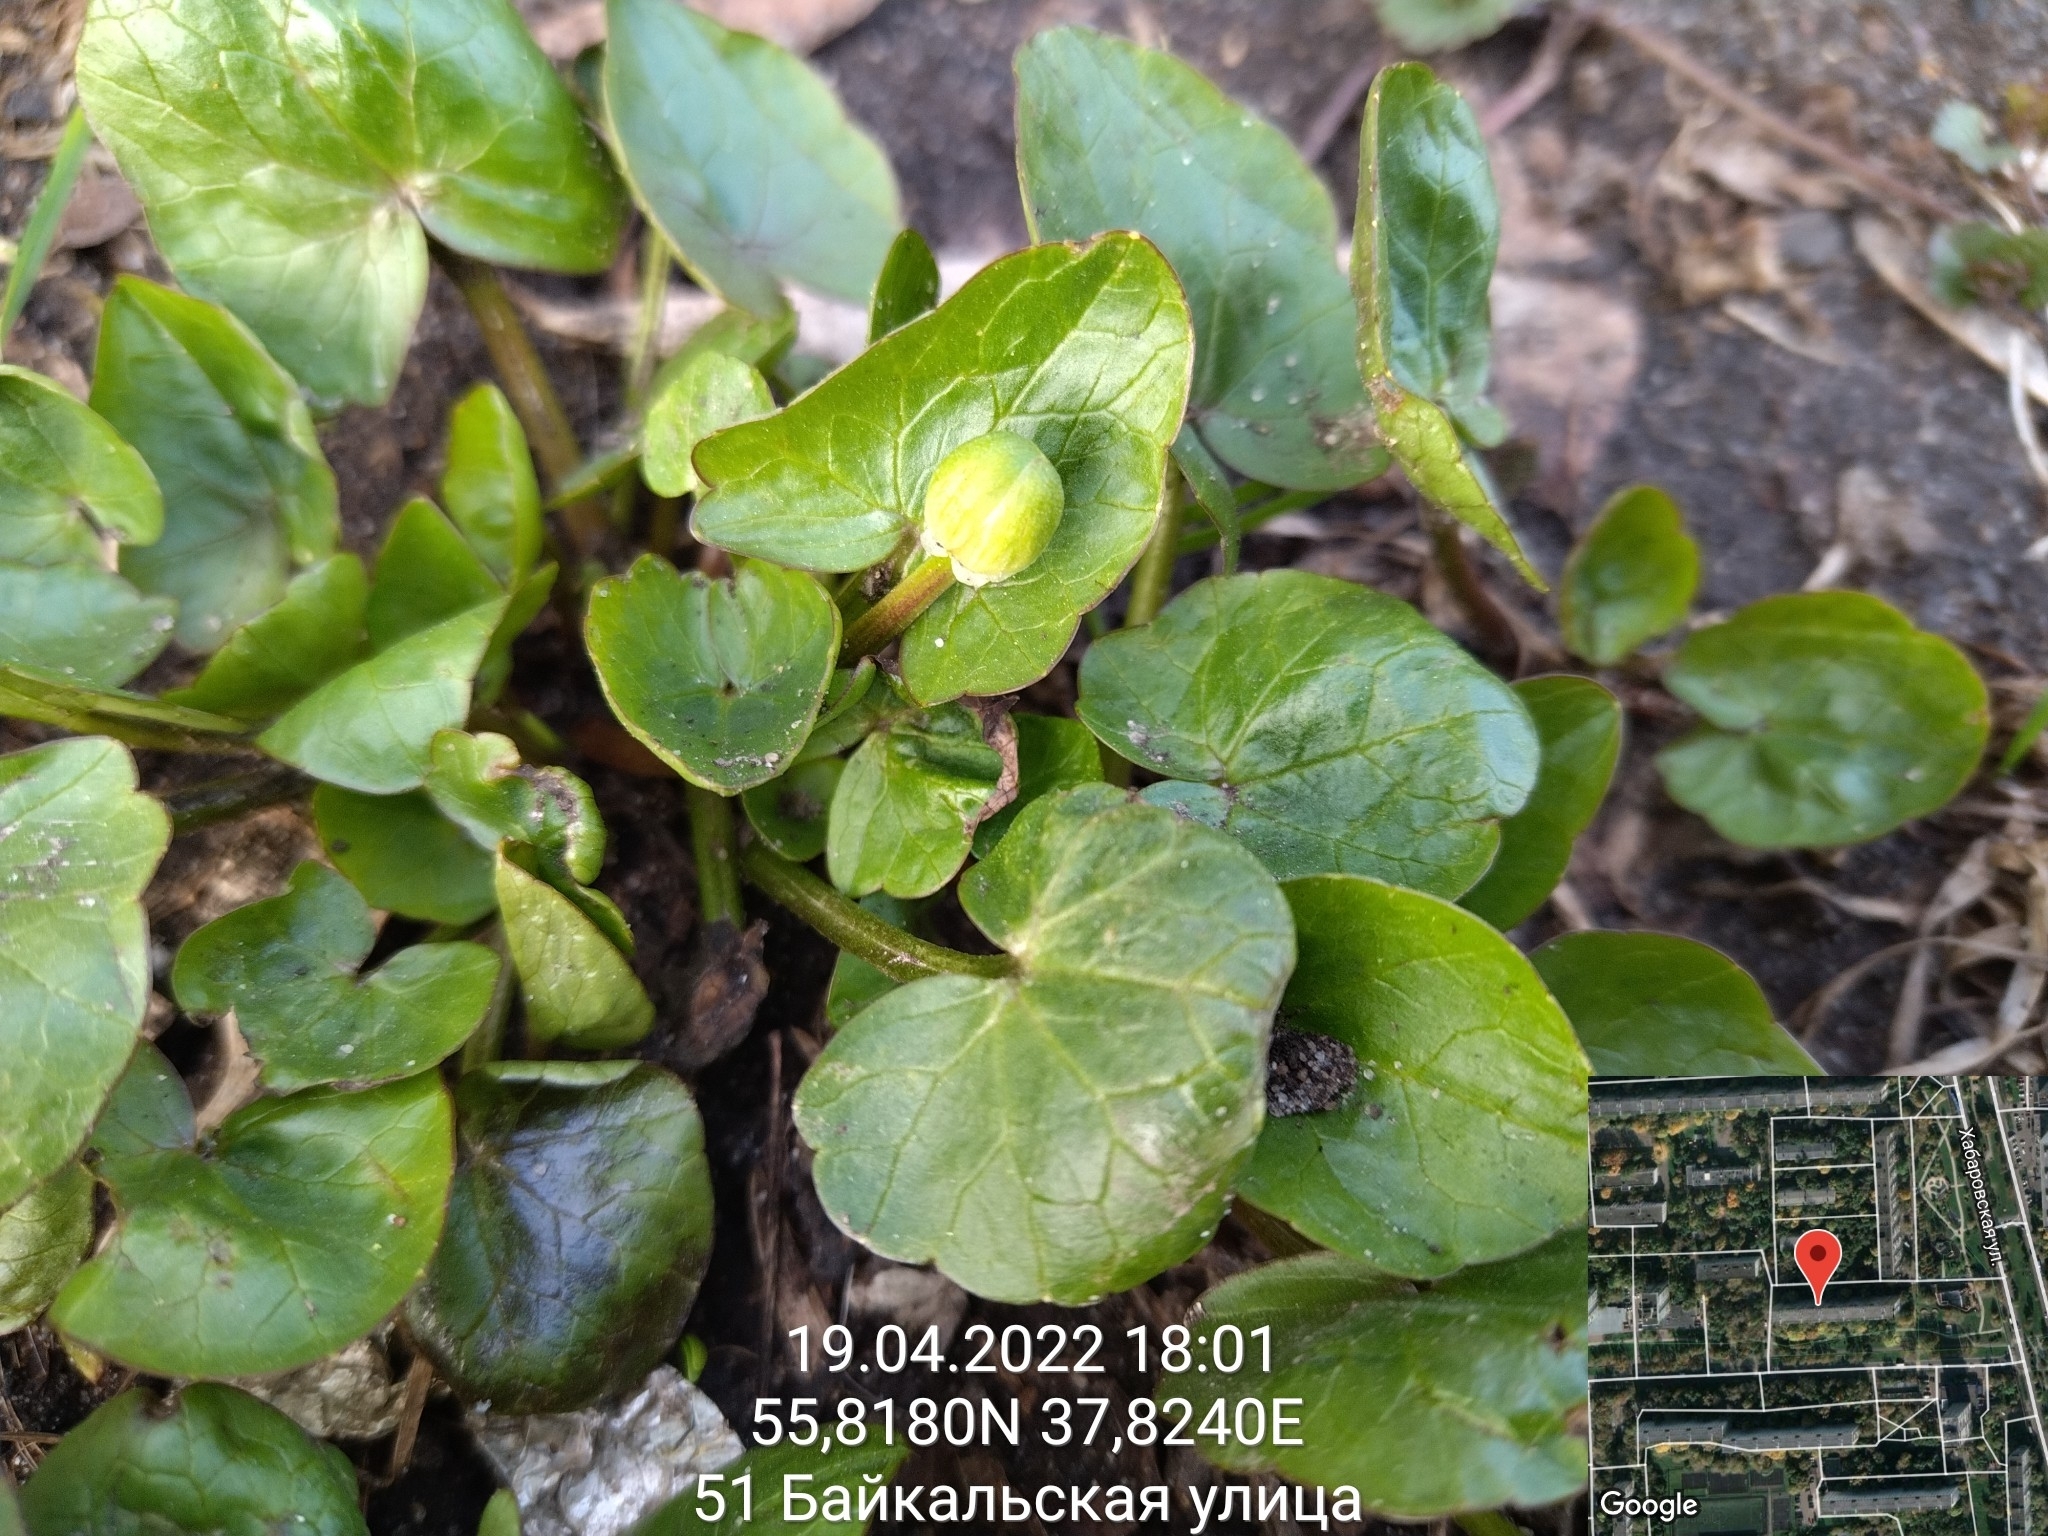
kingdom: Plantae
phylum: Tracheophyta
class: Magnoliopsida
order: Ranunculales
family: Ranunculaceae
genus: Ficaria
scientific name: Ficaria verna
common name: Lesser celandine
